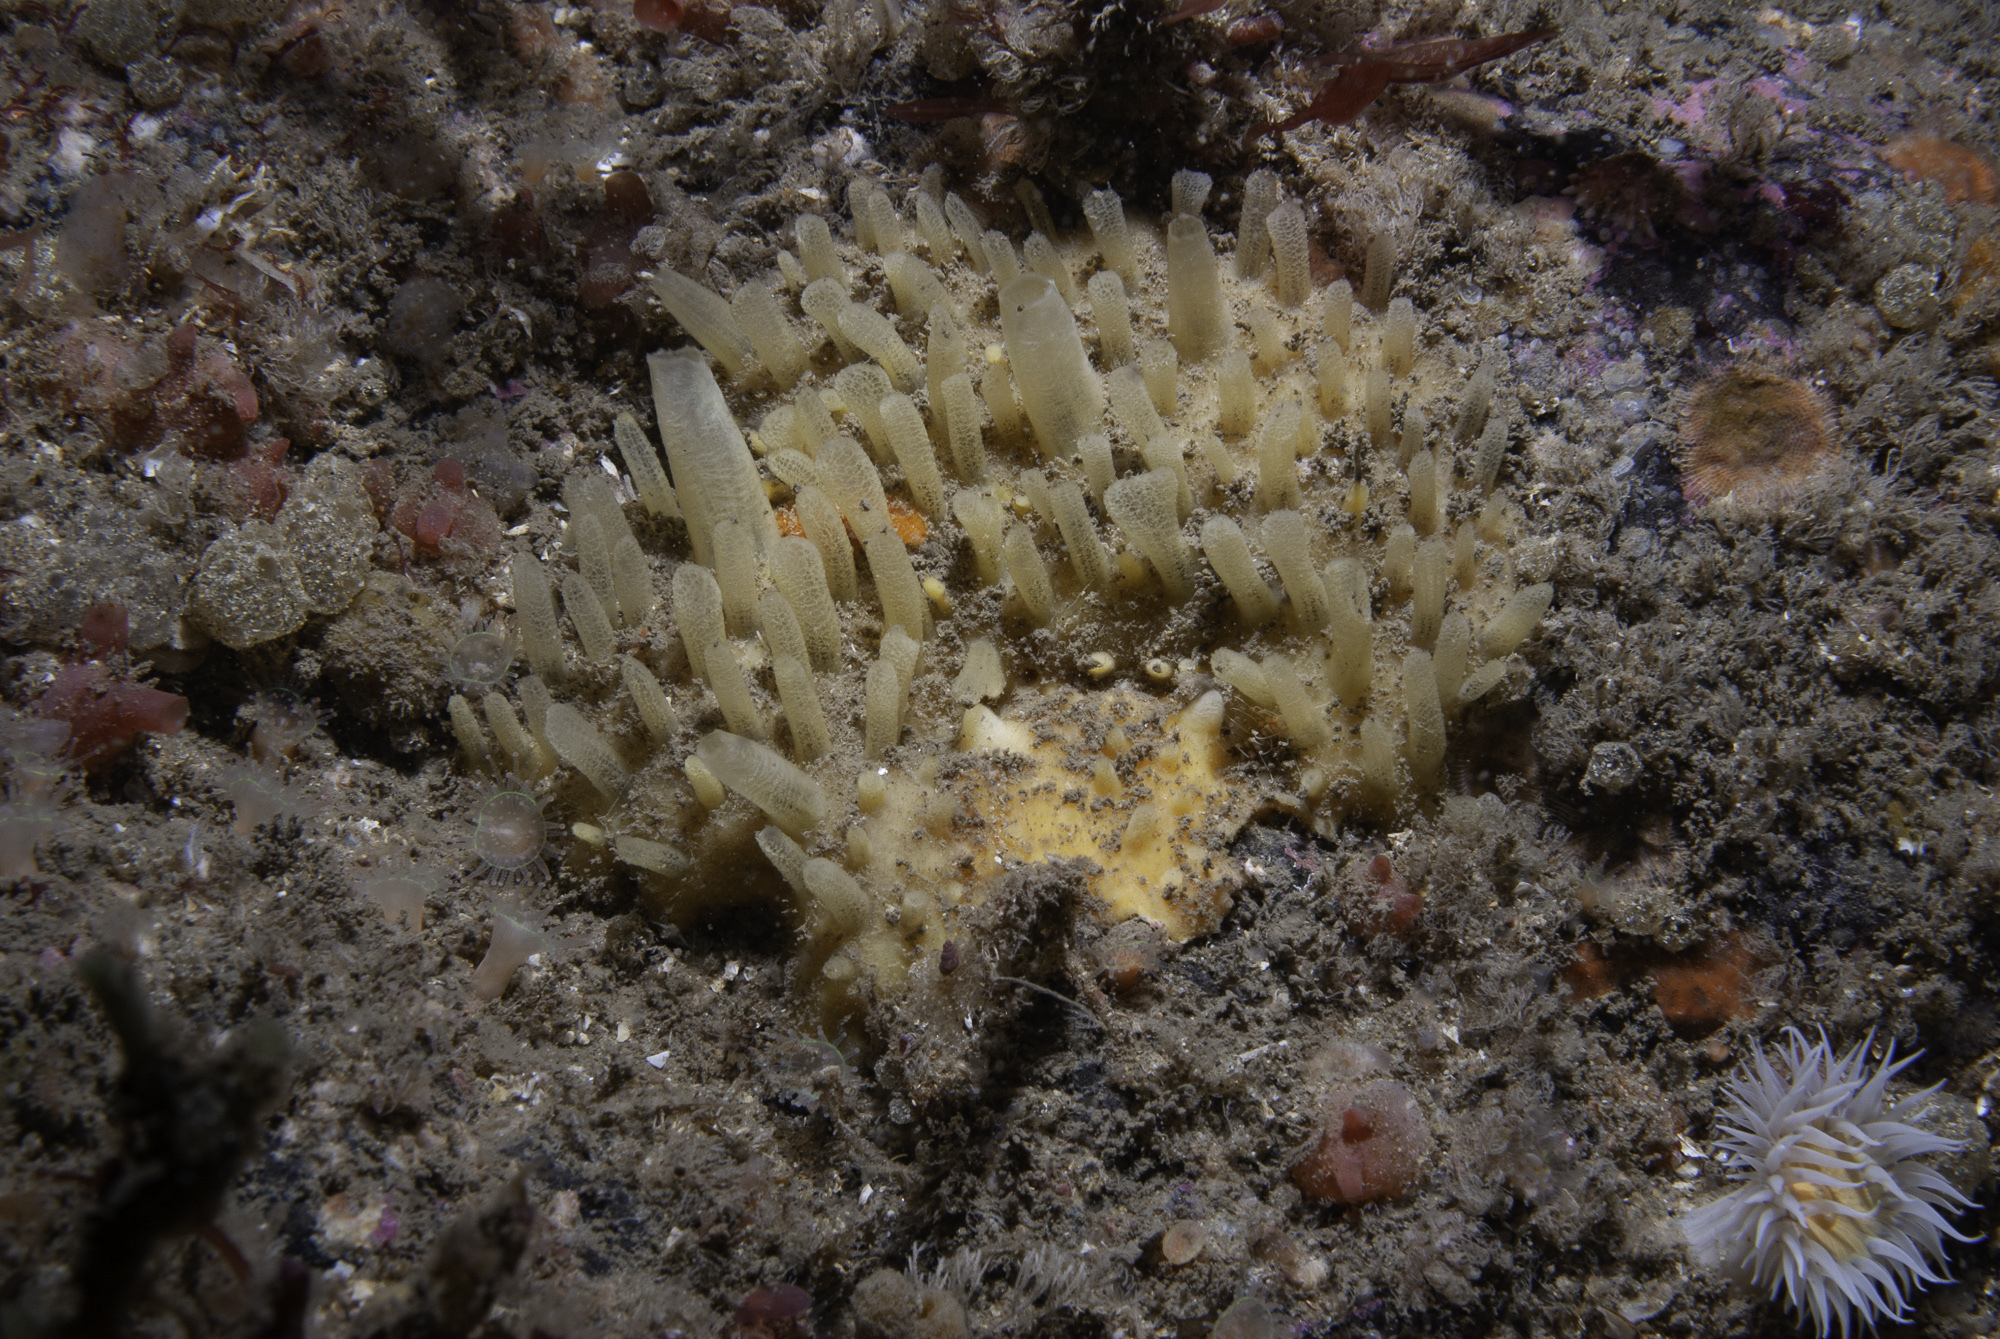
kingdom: Animalia
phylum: Porifera
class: Demospongiae
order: Polymastiida
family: Polymastiidae
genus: Polymastia
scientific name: Polymastia penicillus
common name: Chimney sponge
